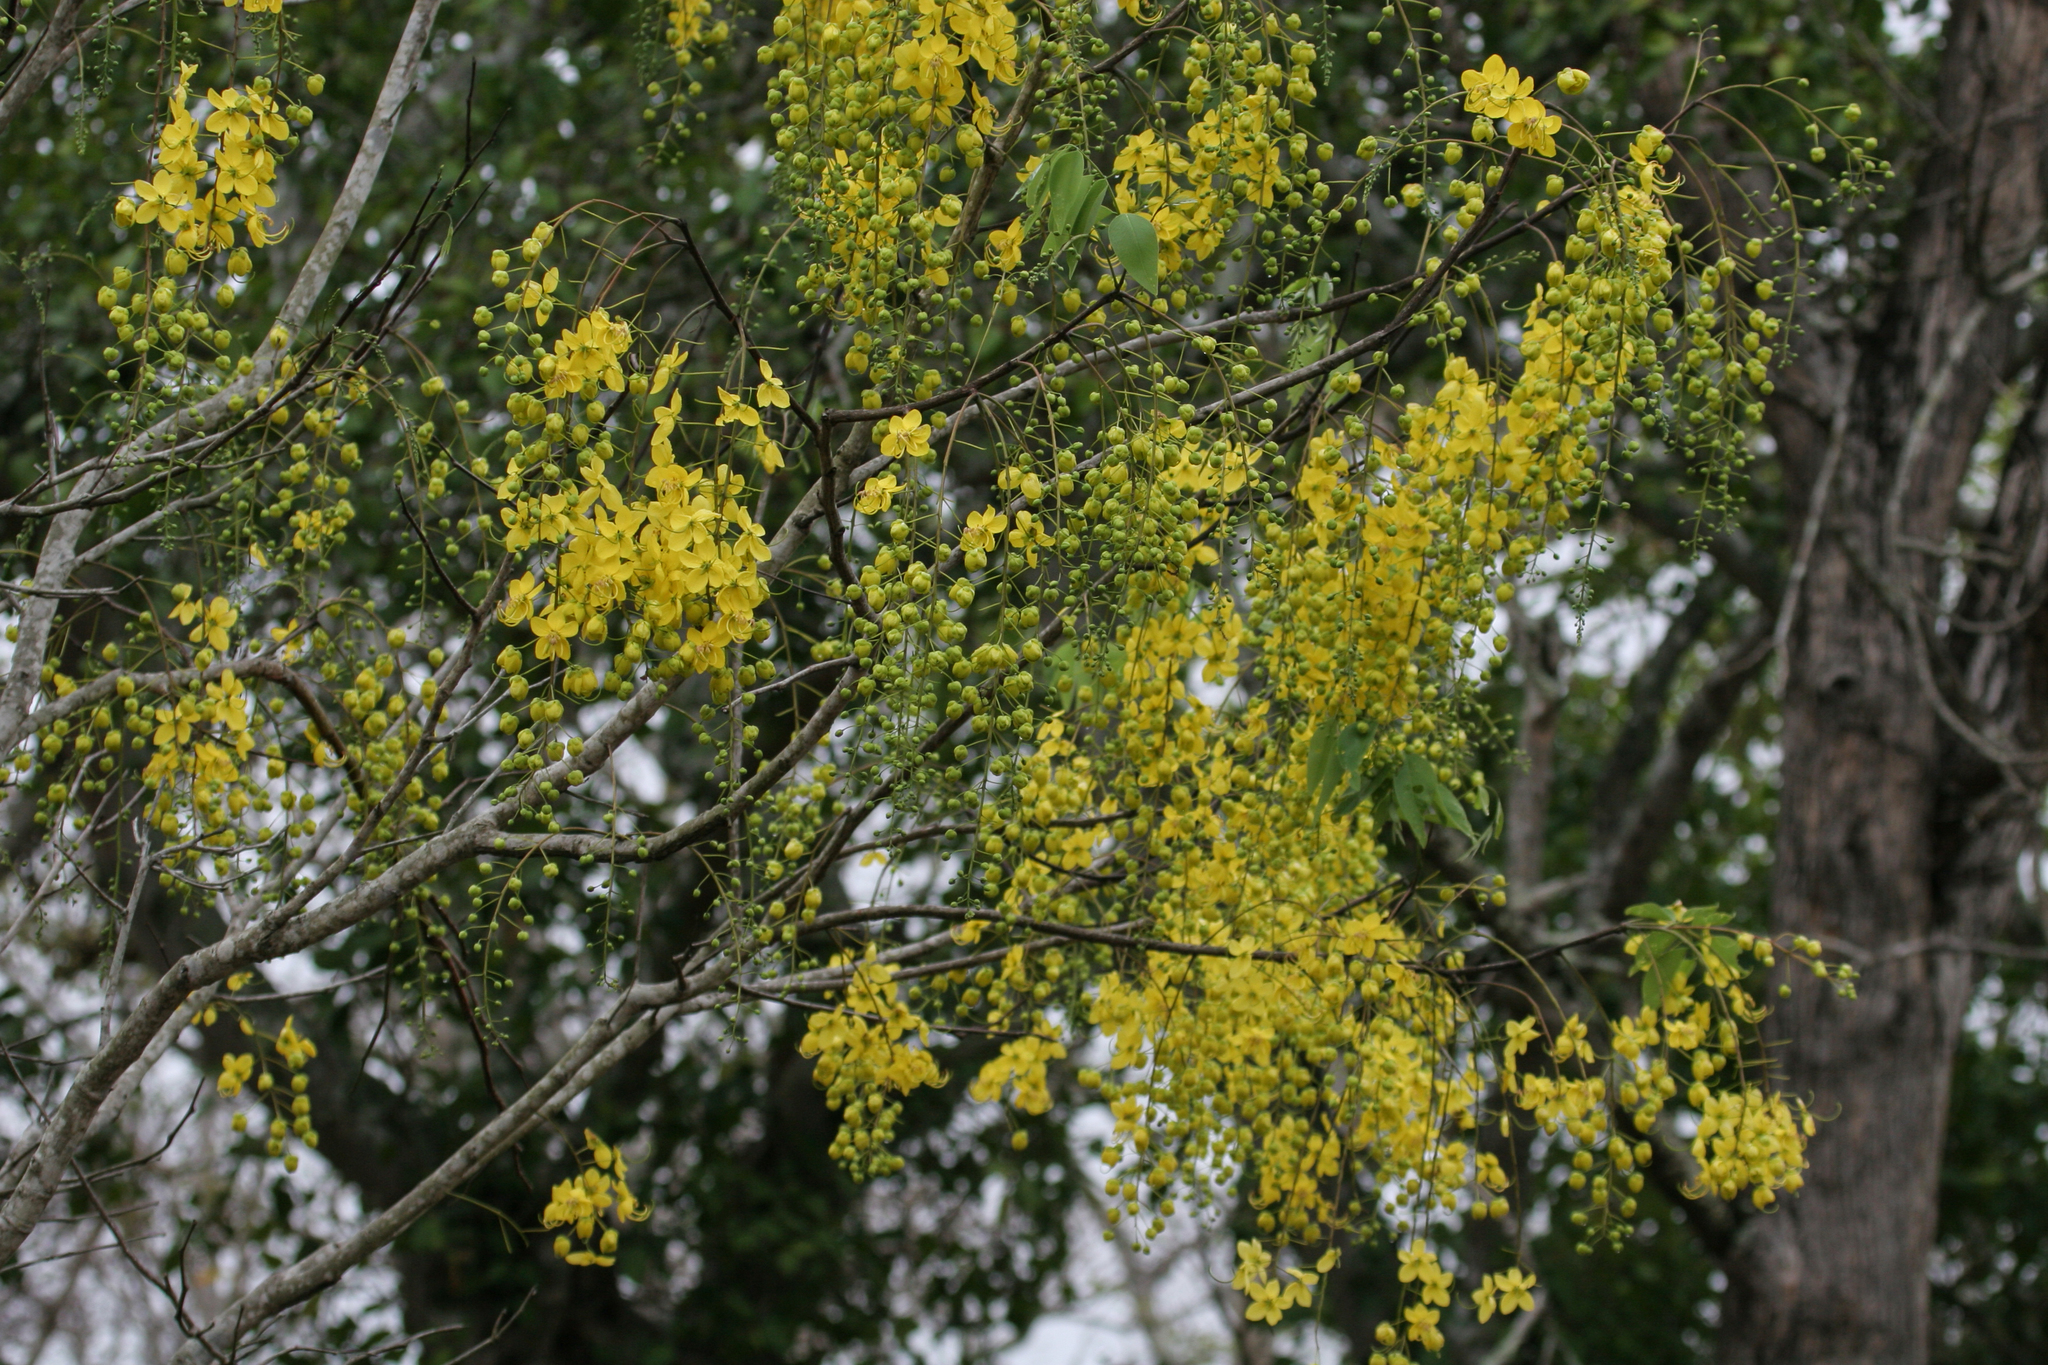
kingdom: Plantae
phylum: Tracheophyta
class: Magnoliopsida
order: Fabales
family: Fabaceae
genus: Cassia
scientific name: Cassia fistula
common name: Golden shower
